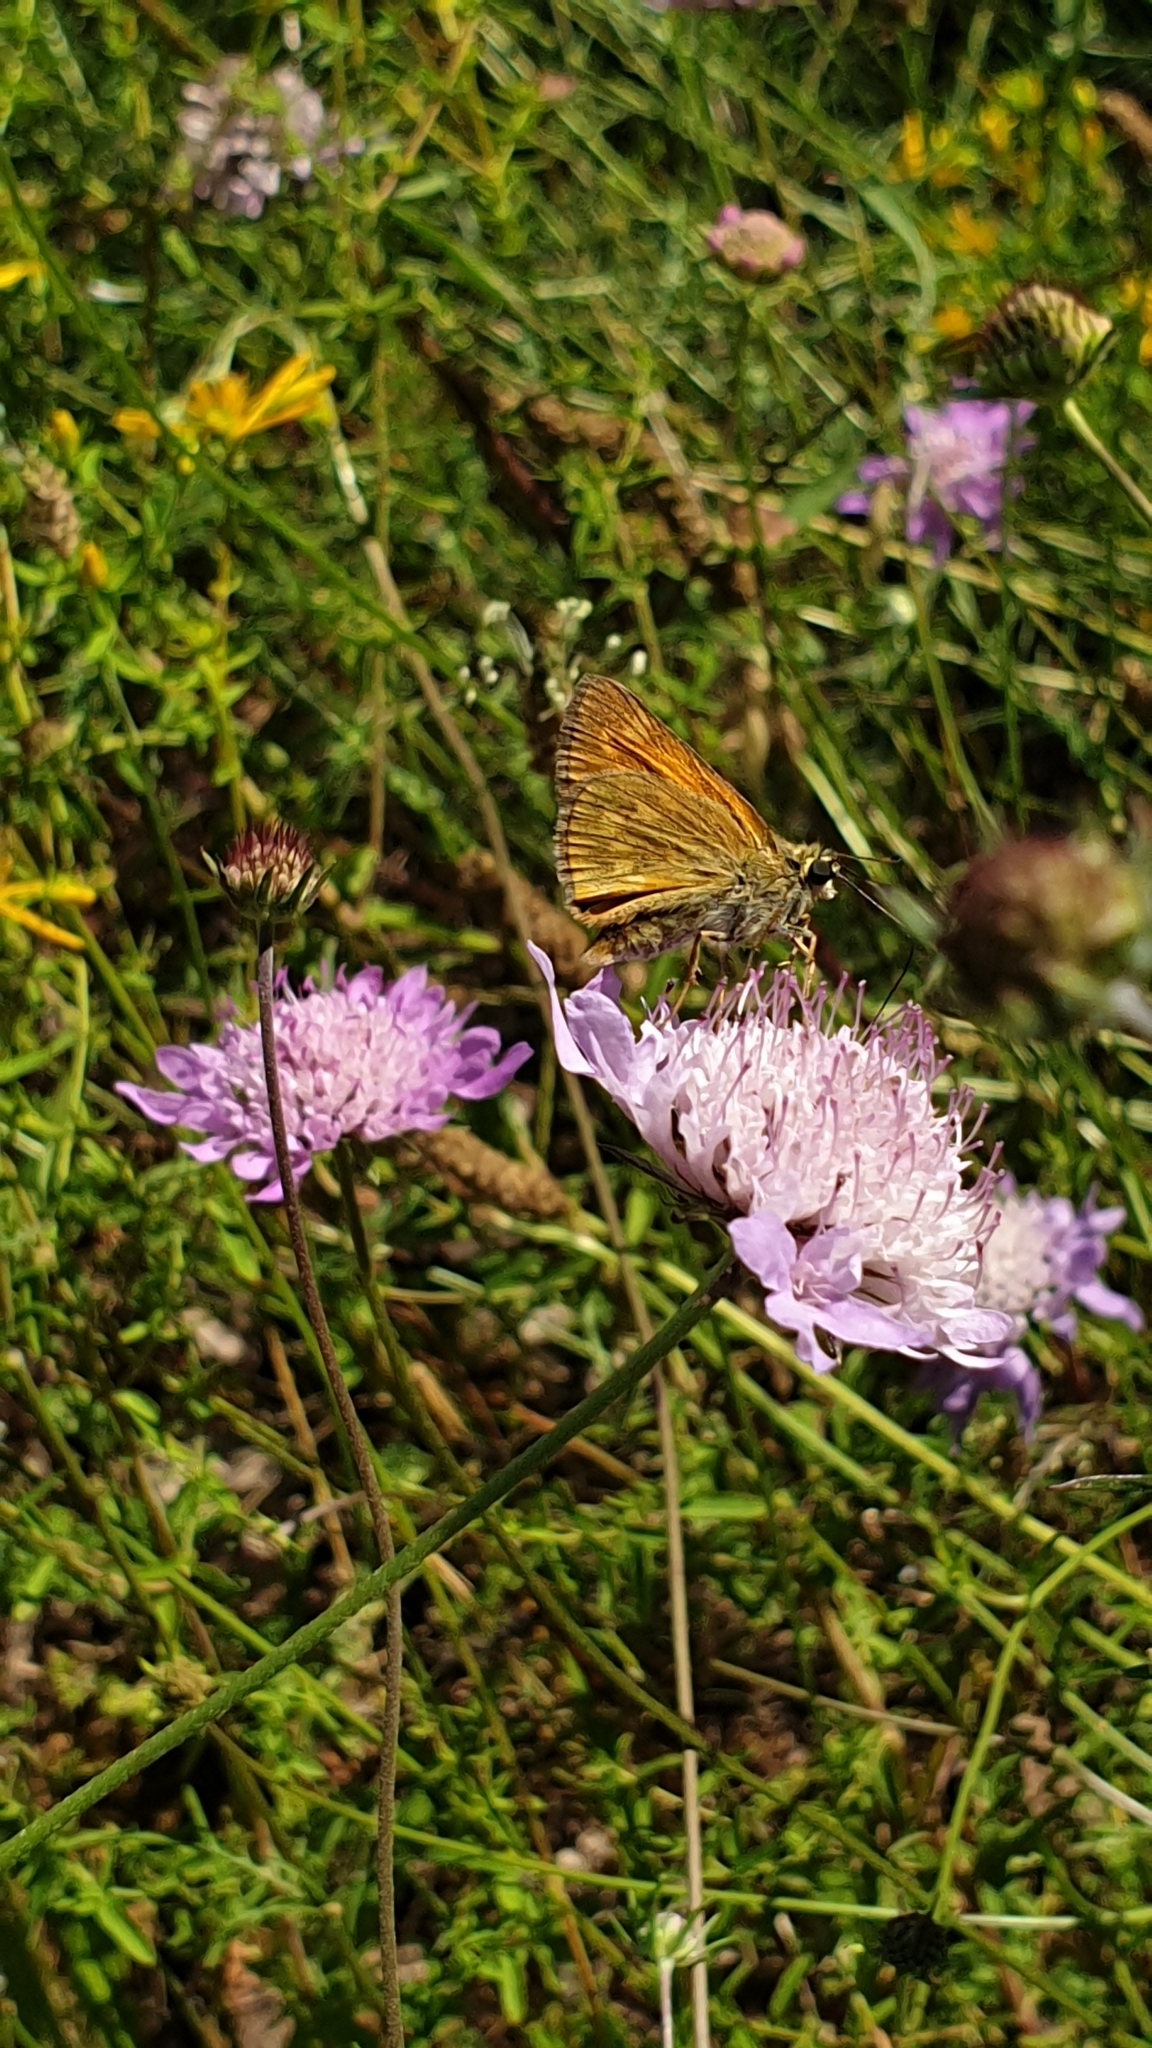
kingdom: Animalia
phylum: Arthropoda
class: Insecta
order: Lepidoptera
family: Hesperiidae
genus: Ochlodes
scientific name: Ochlodes venata
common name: Large skipper
